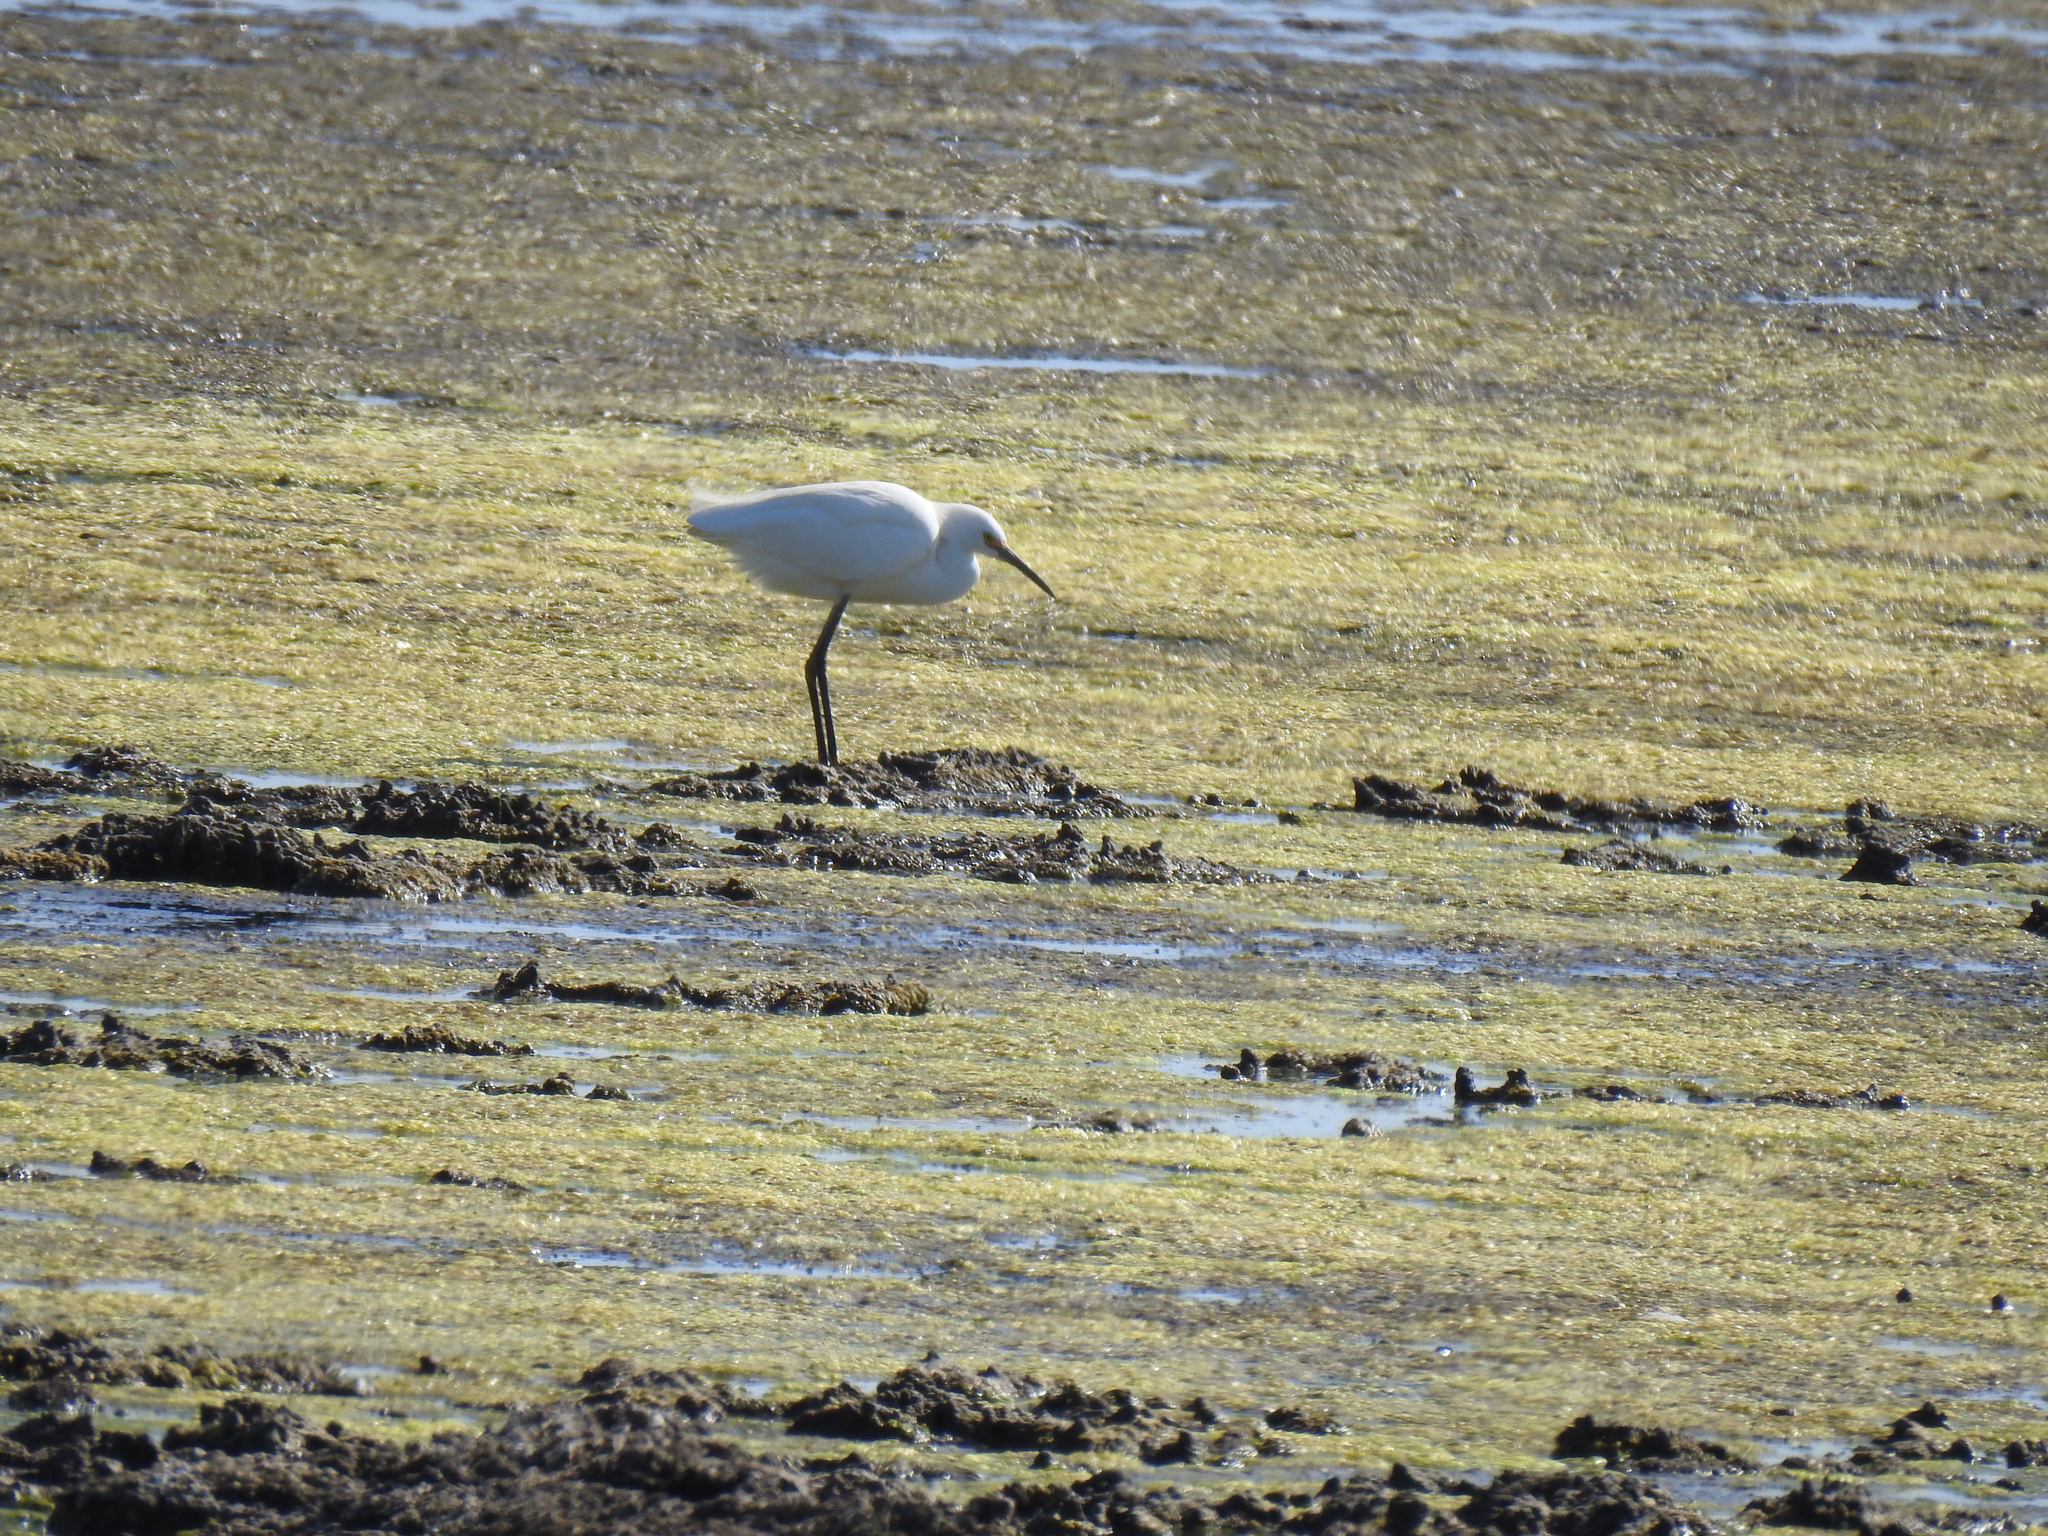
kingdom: Animalia
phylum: Chordata
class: Aves
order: Pelecaniformes
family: Ardeidae
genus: Egretta
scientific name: Egretta thula
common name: Snowy egret
